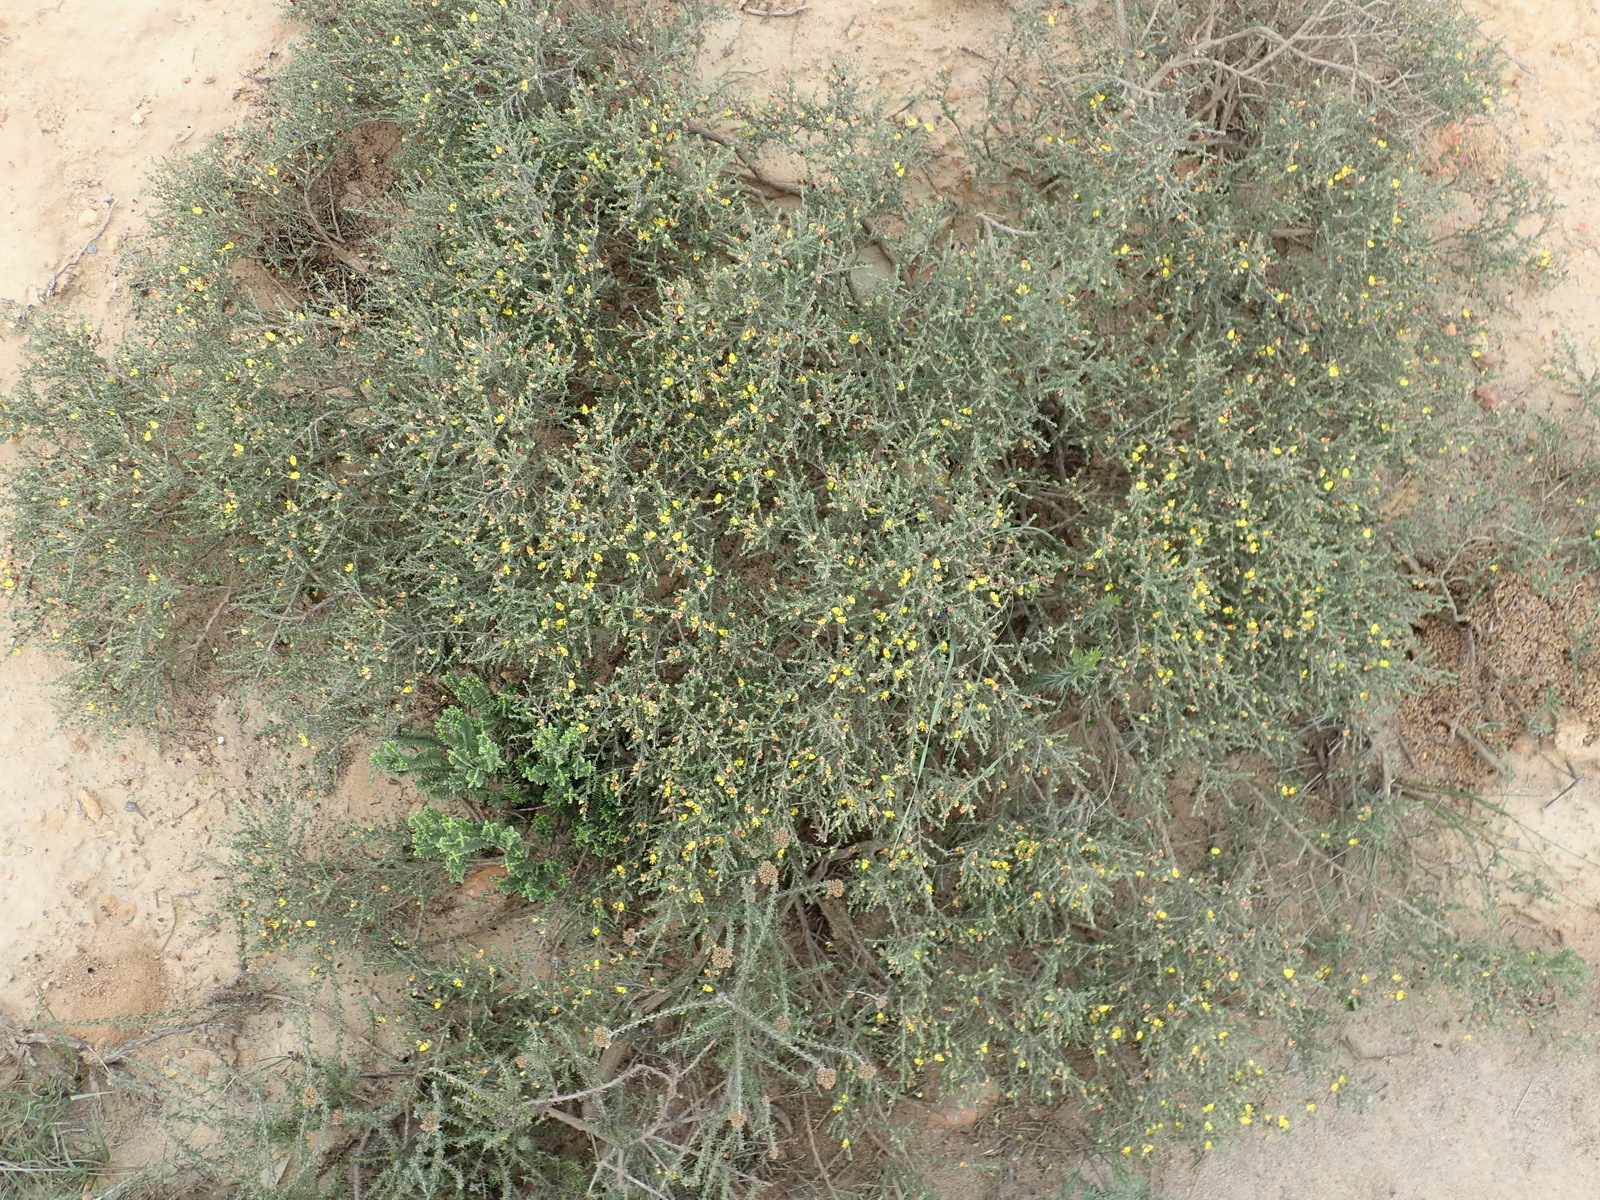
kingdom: Plantae
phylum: Tracheophyta
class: Magnoliopsida
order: Fabales
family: Fabaceae
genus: Aspalathus
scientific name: Aspalathus smithii
